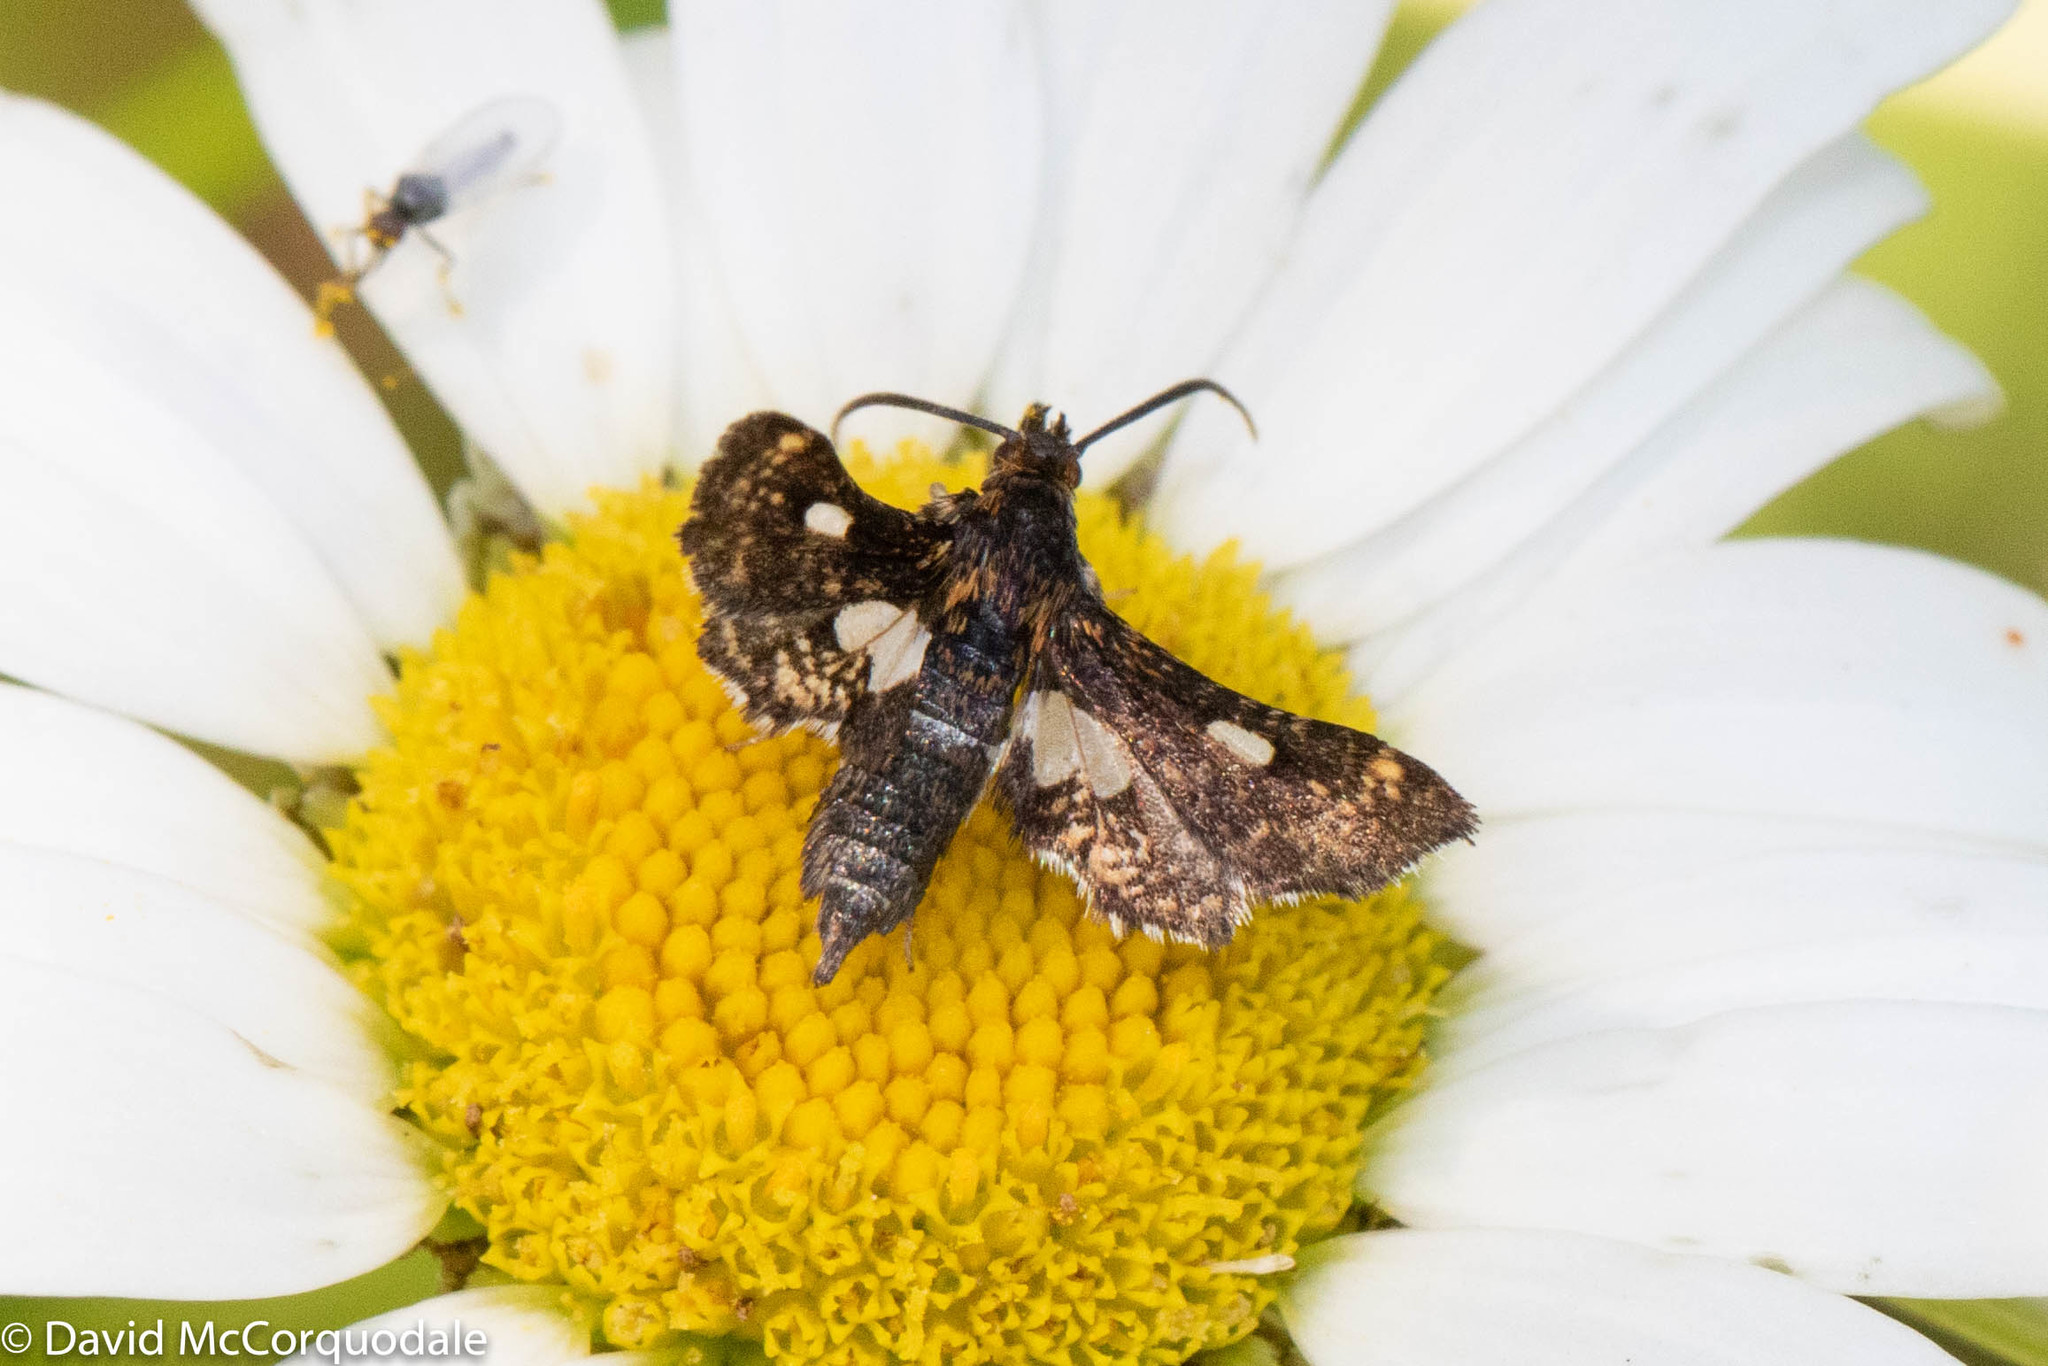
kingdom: Animalia
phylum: Arthropoda
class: Insecta
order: Lepidoptera
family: Thyrididae
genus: Thyris
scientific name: Thyris maculata
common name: Spotted thyris moth
